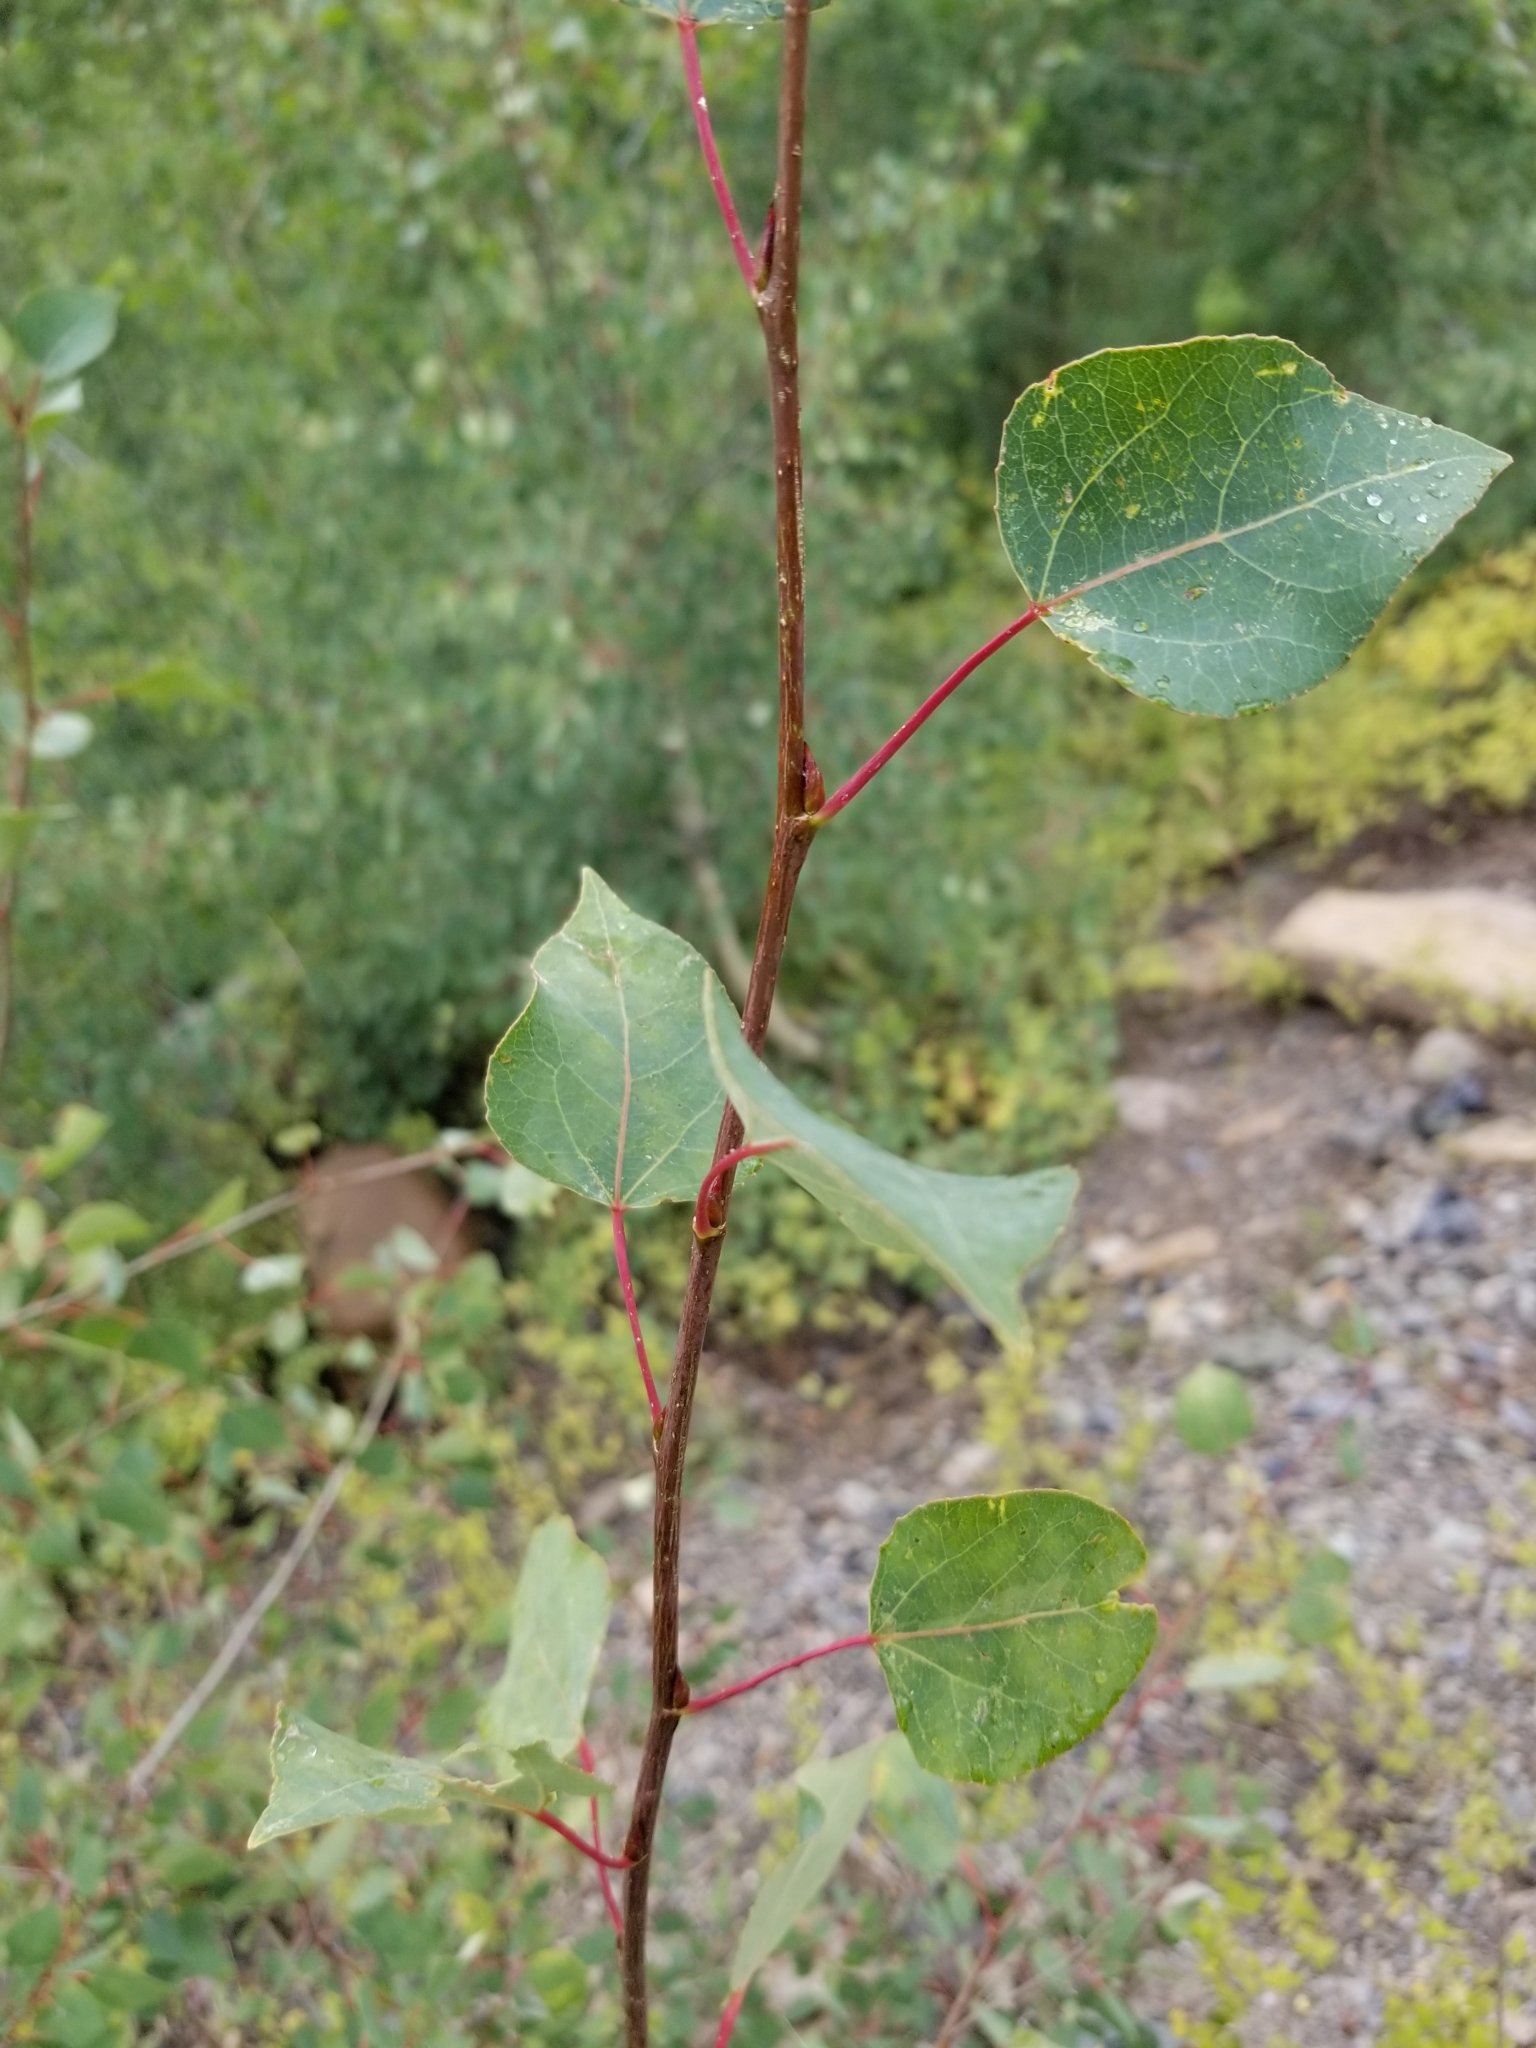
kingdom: Plantae
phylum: Tracheophyta
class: Magnoliopsida
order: Malpighiales
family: Salicaceae
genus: Populus
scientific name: Populus tremuloides
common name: Quaking aspen
